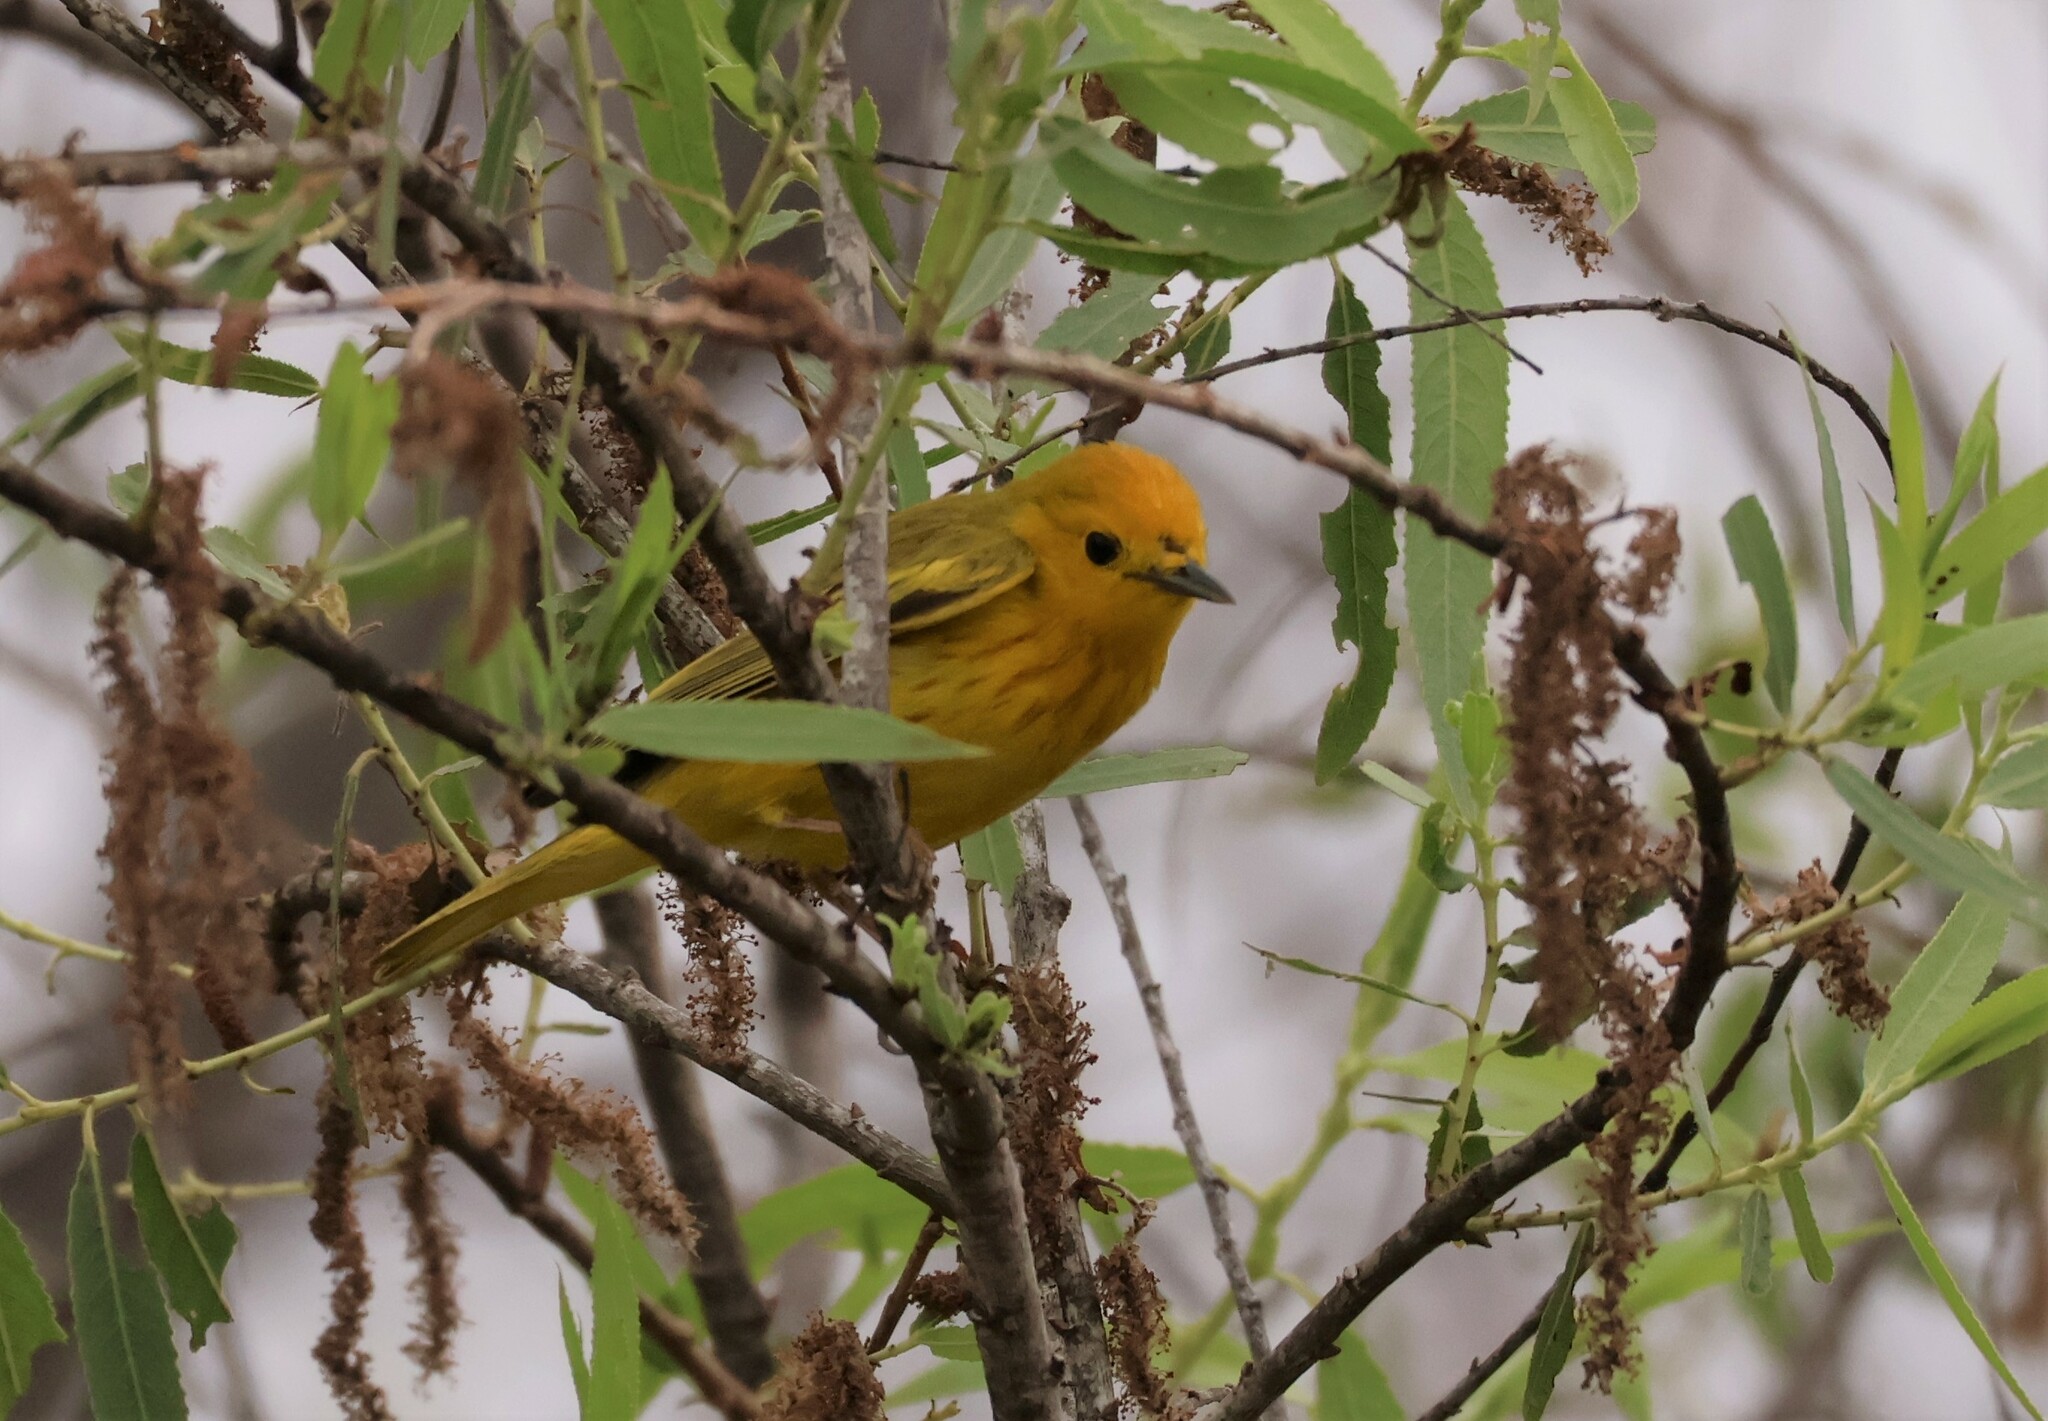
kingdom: Animalia
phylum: Chordata
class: Aves
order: Passeriformes
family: Parulidae
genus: Setophaga
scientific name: Setophaga petechia
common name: Yellow warbler
